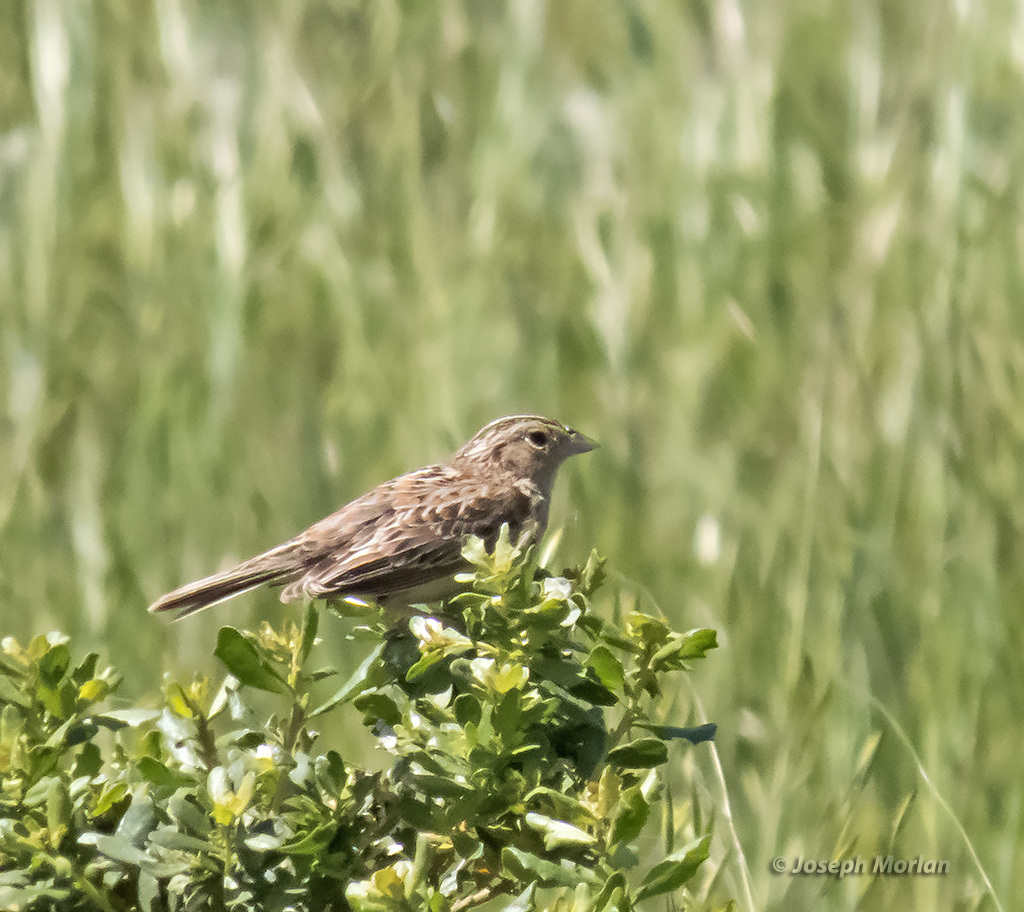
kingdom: Animalia
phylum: Chordata
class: Aves
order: Passeriformes
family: Passerellidae
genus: Ammodramus
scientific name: Ammodramus savannarum
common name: Grasshopper sparrow
